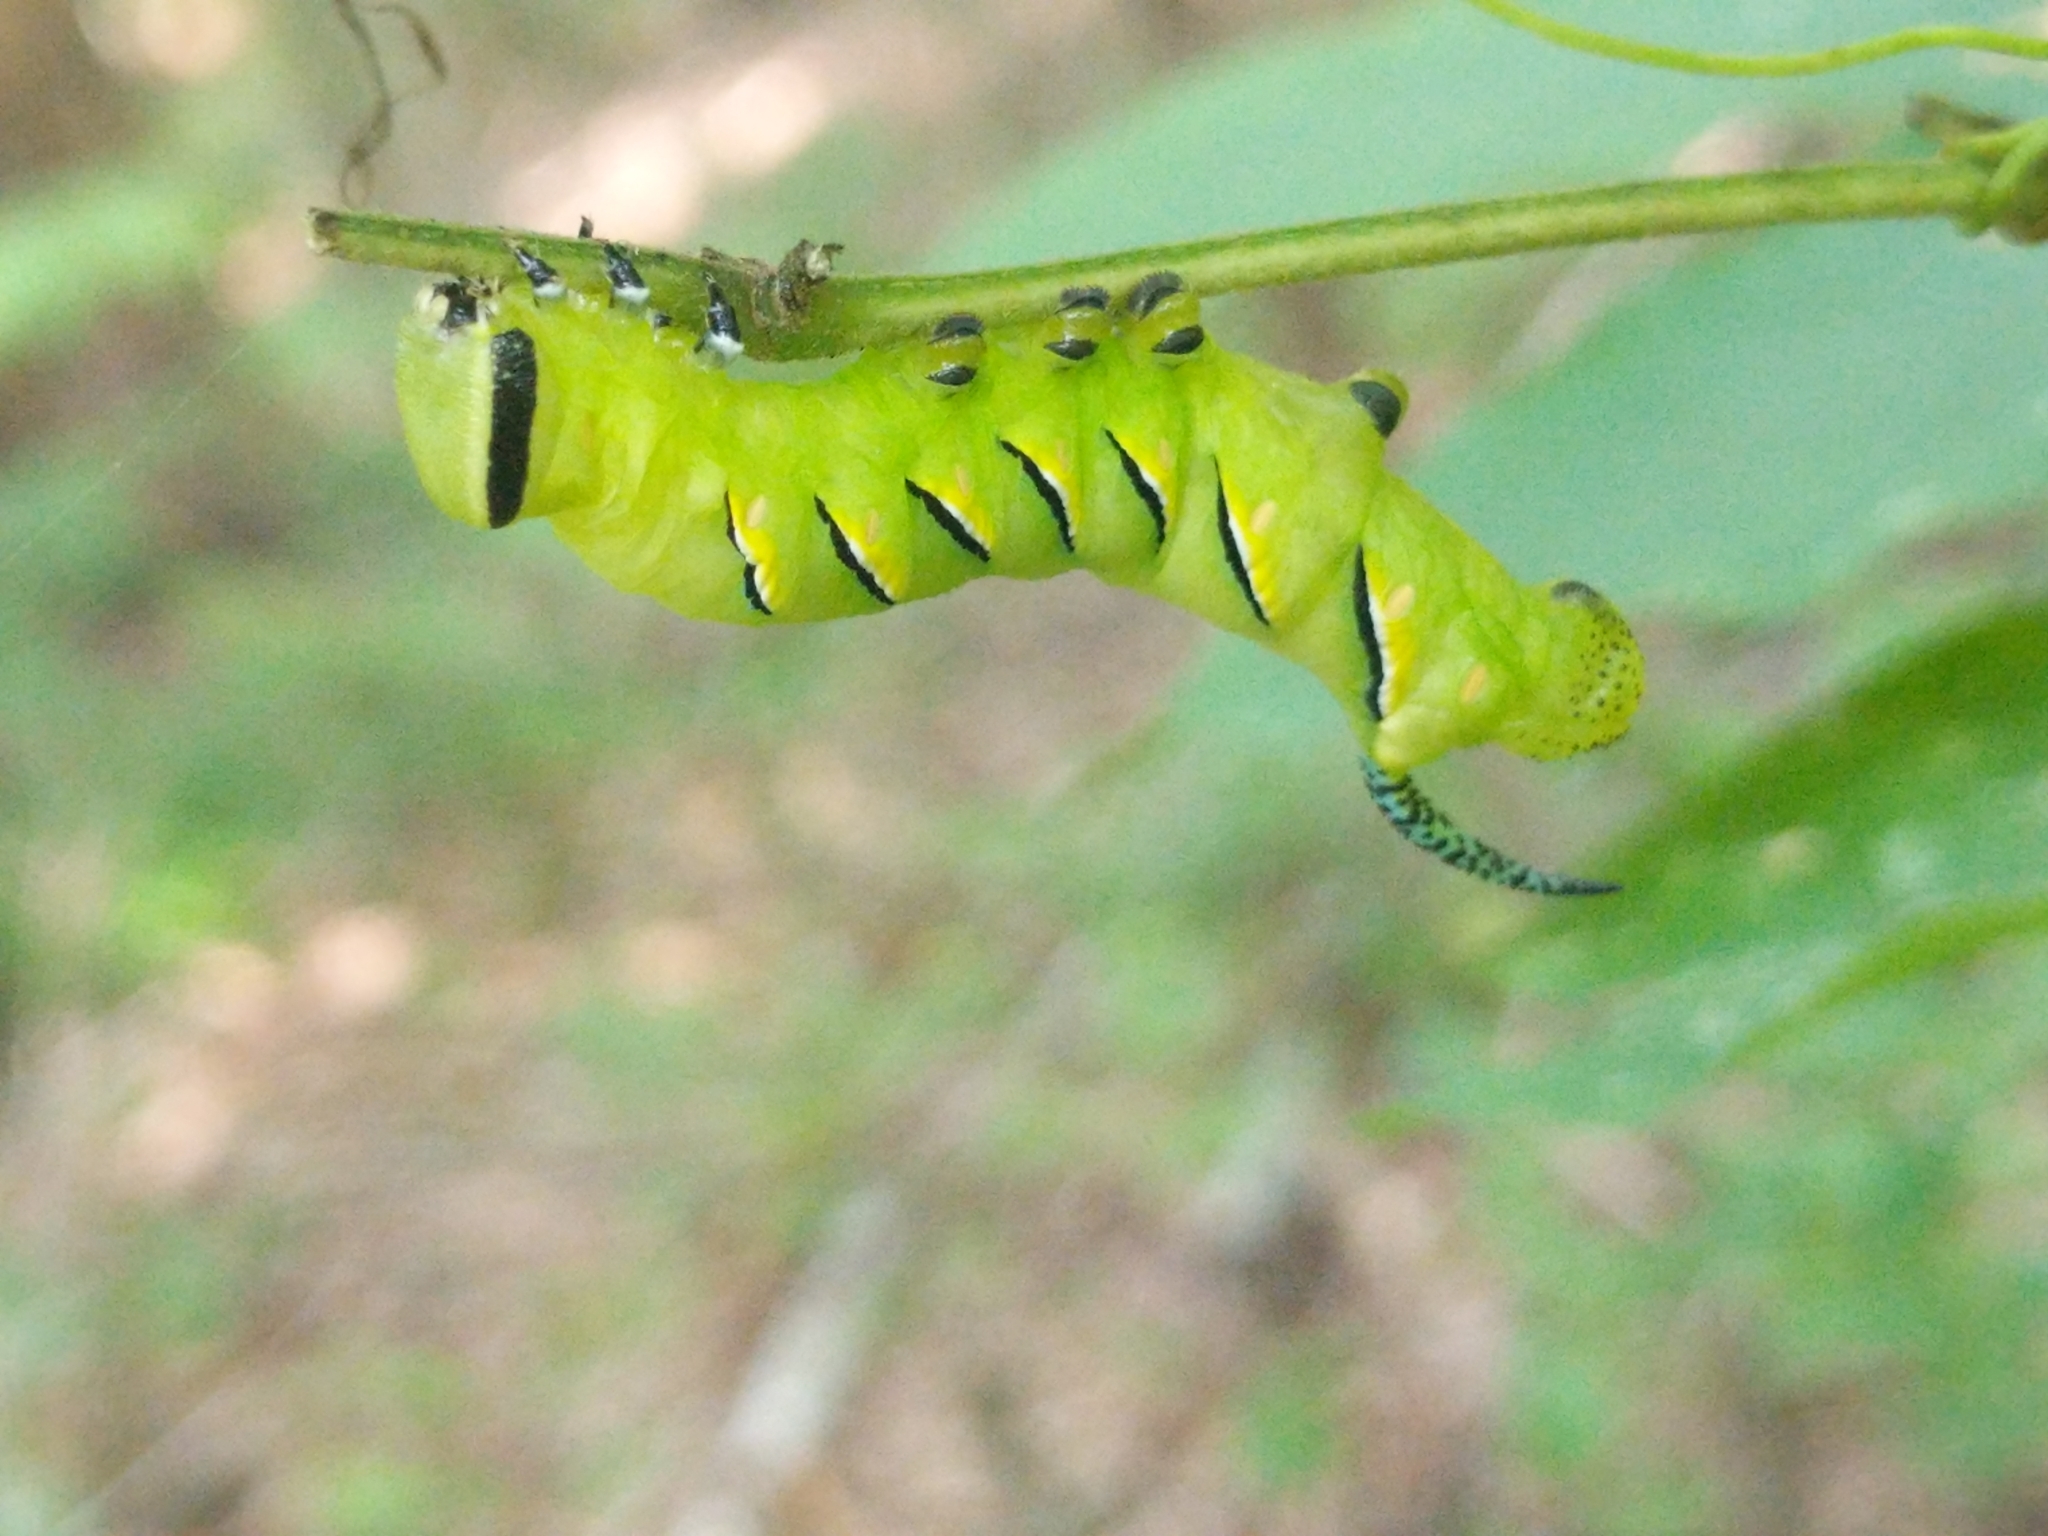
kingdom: Animalia
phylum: Arthropoda
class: Insecta
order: Lepidoptera
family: Sphingidae
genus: Sphinx
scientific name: Sphinx kalmiae
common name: Laurel sphinx
